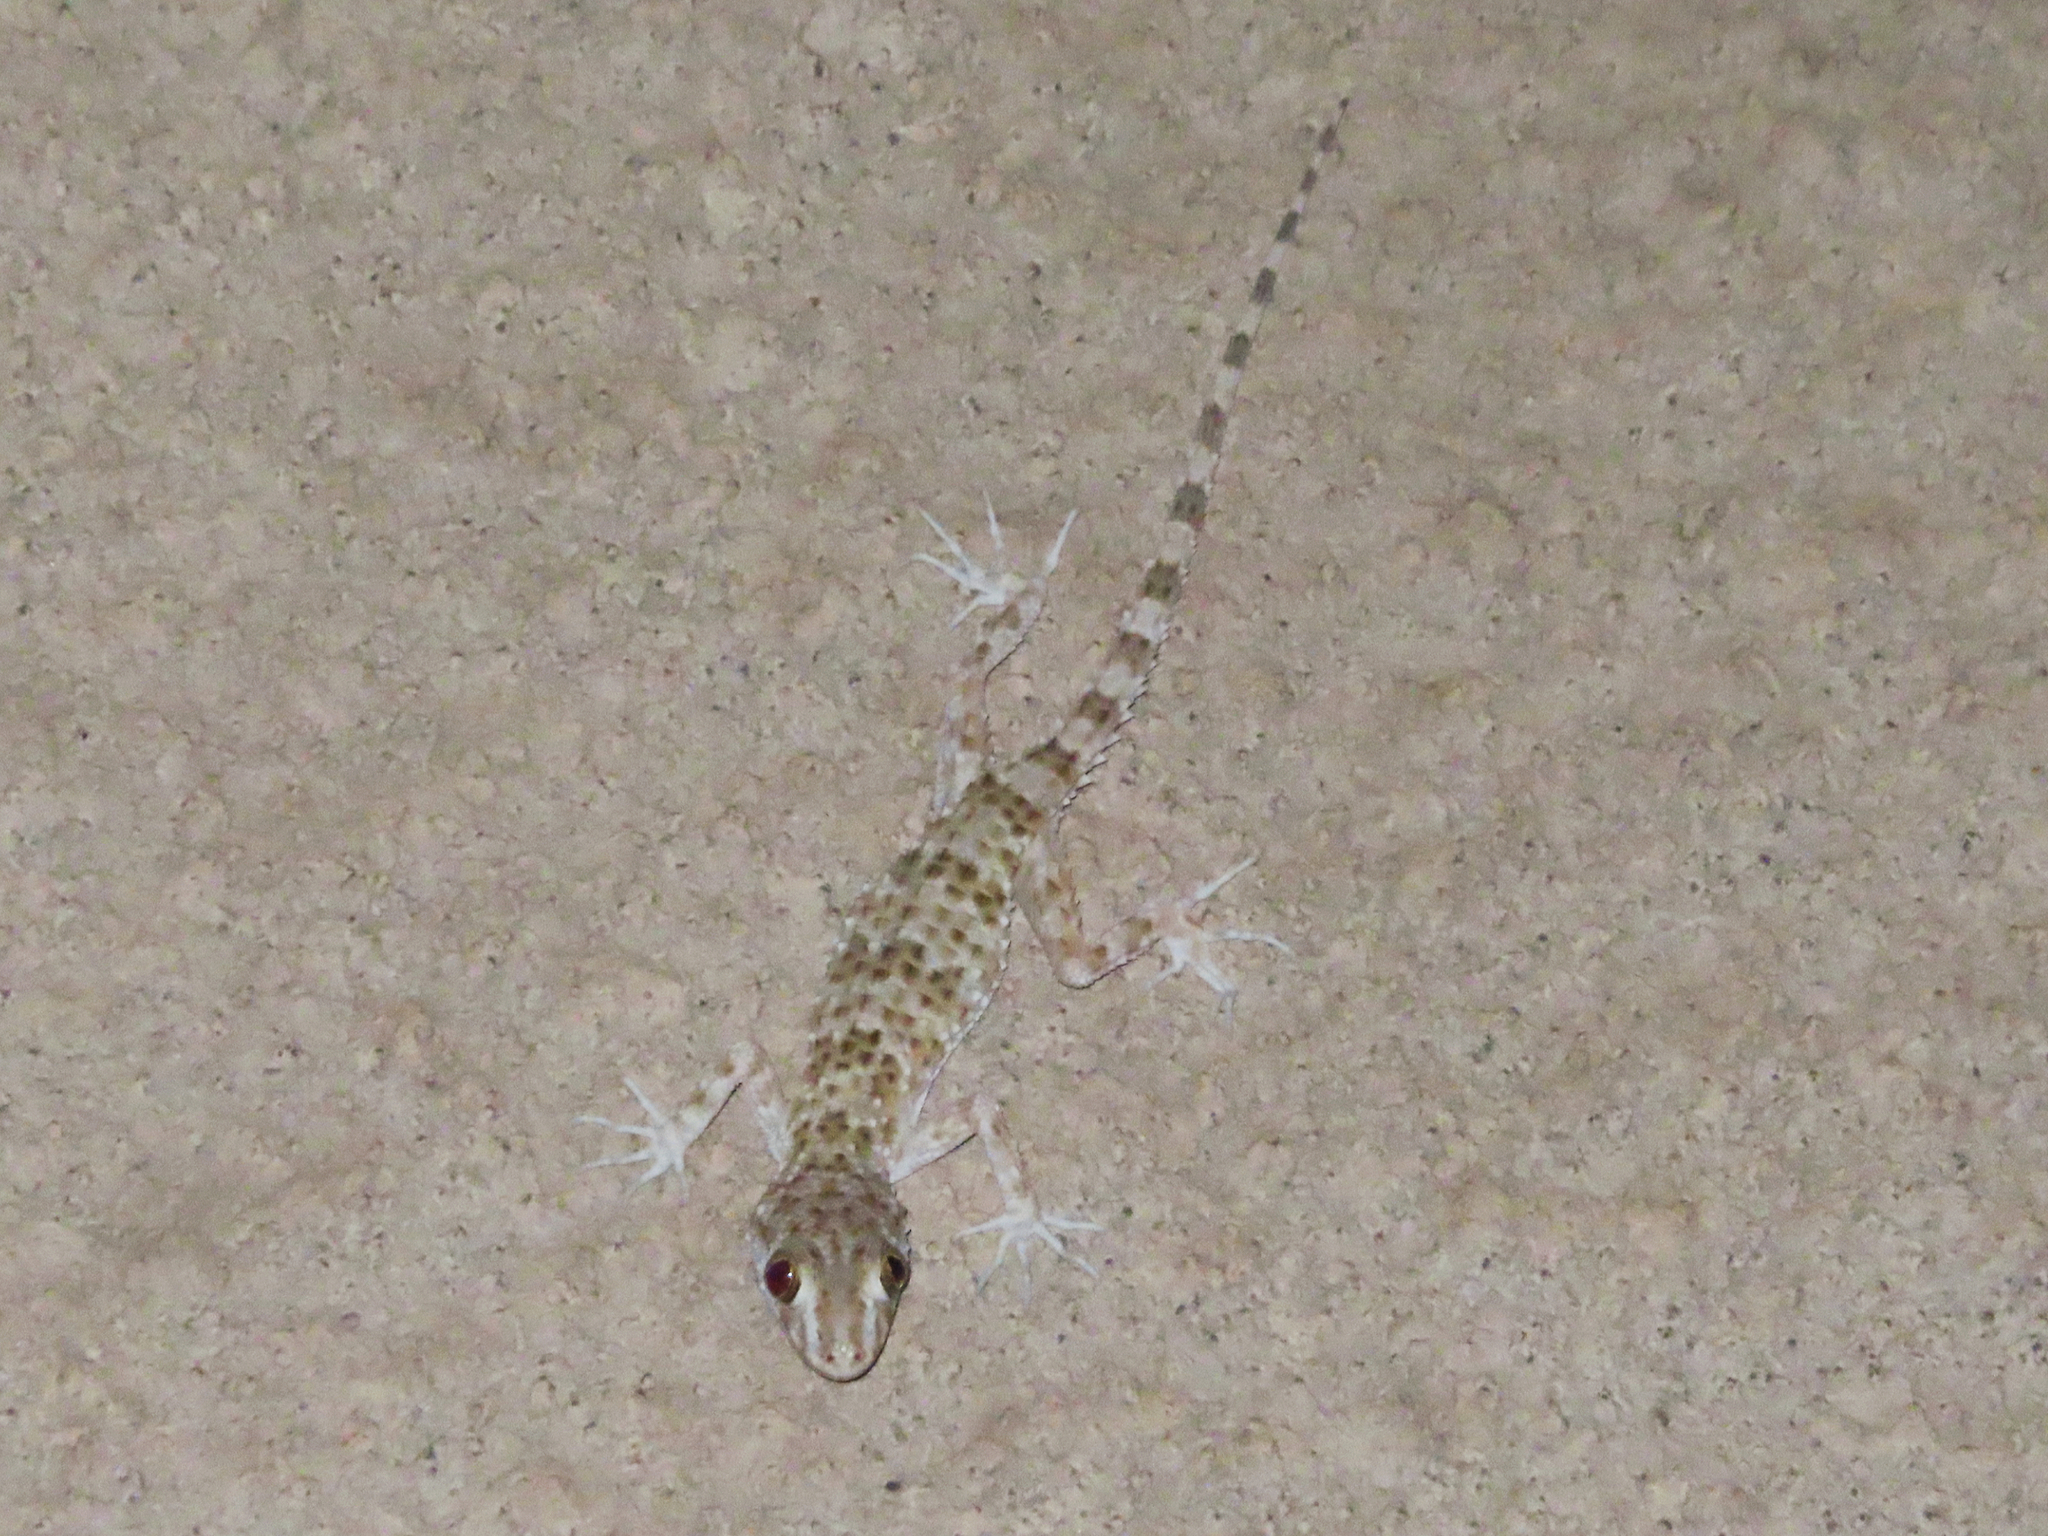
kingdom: Animalia
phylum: Chordata
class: Squamata
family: Gekkonidae
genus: Tenuidactylus
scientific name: Tenuidactylus caspius
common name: Caspian bent-toed gecko
